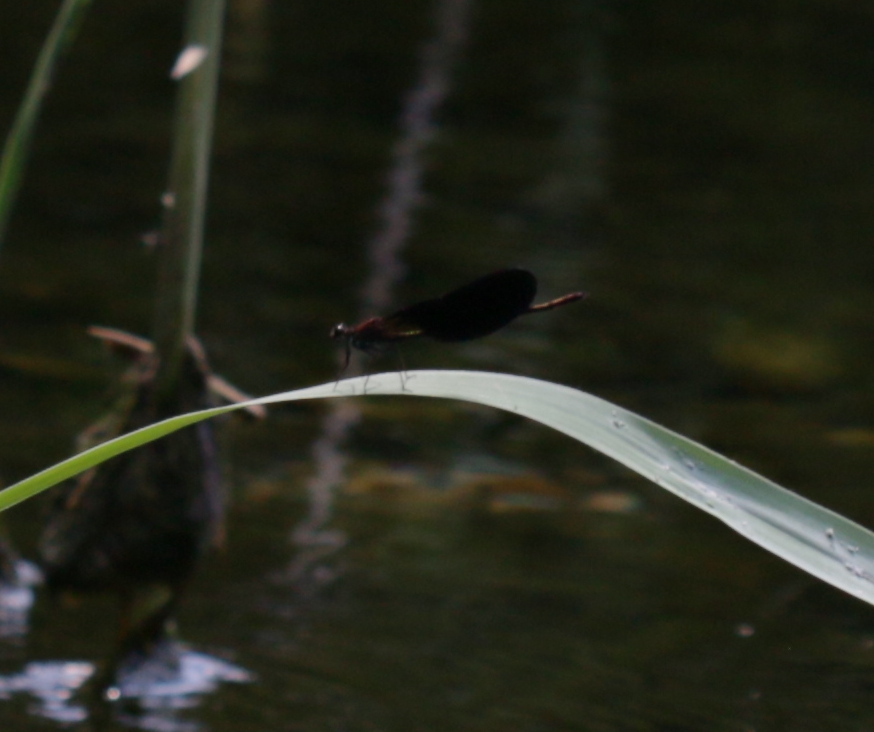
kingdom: Animalia
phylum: Arthropoda
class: Insecta
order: Odonata
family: Calopterygidae
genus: Calopteryx
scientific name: Calopteryx haemorrhoidalis
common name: Copper demoiselle
